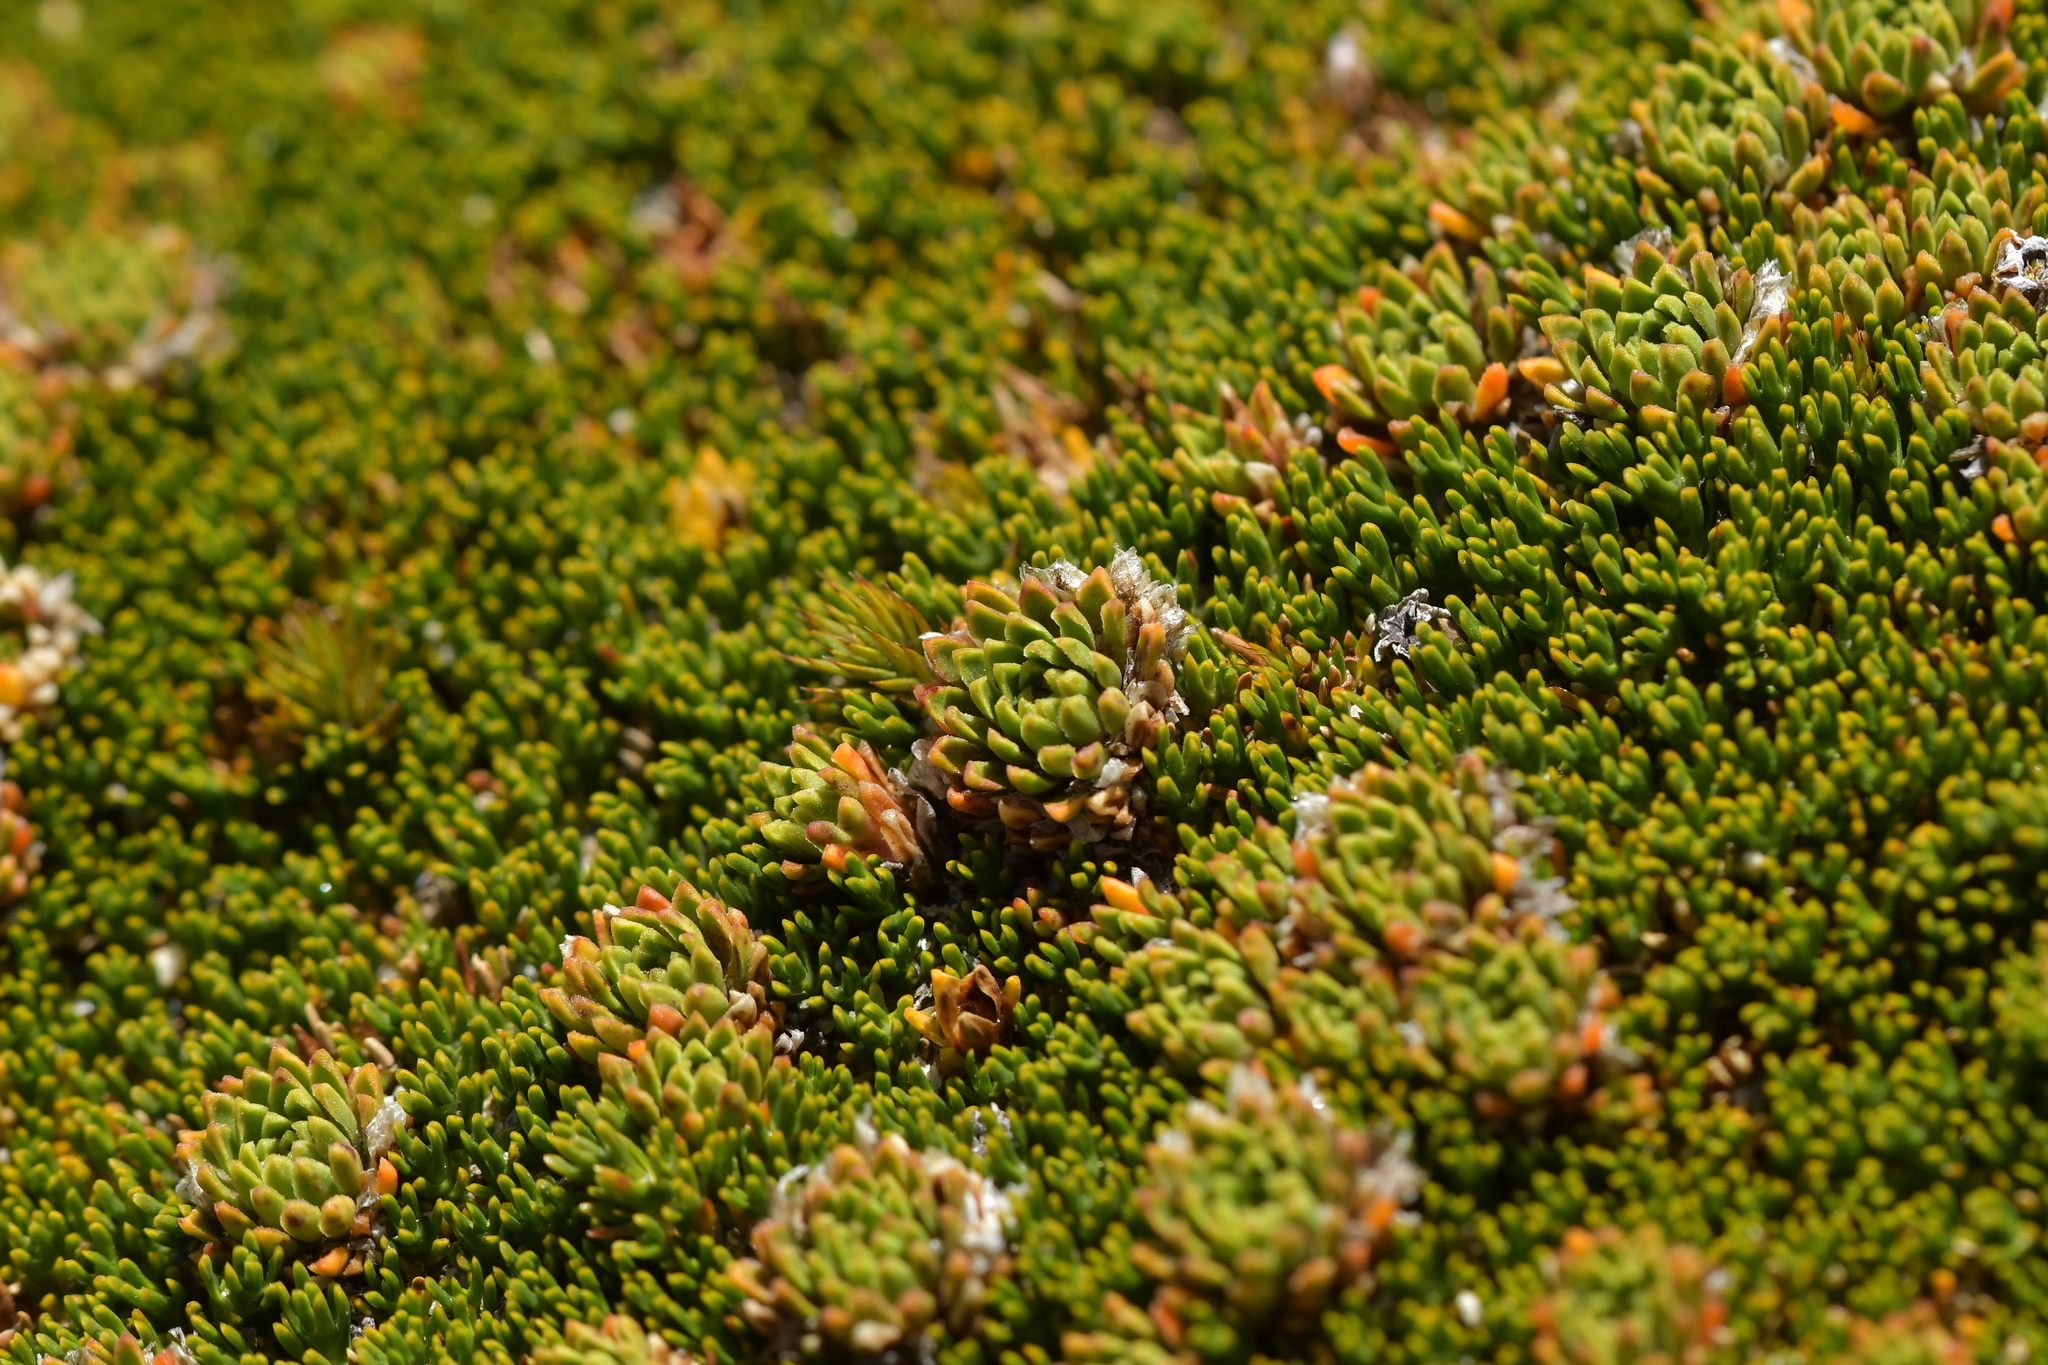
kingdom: Plantae
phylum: Tracheophyta
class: Magnoliopsida
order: Caryophyllales
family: Montiaceae
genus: Hectorella
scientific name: Hectorella caespitosa
